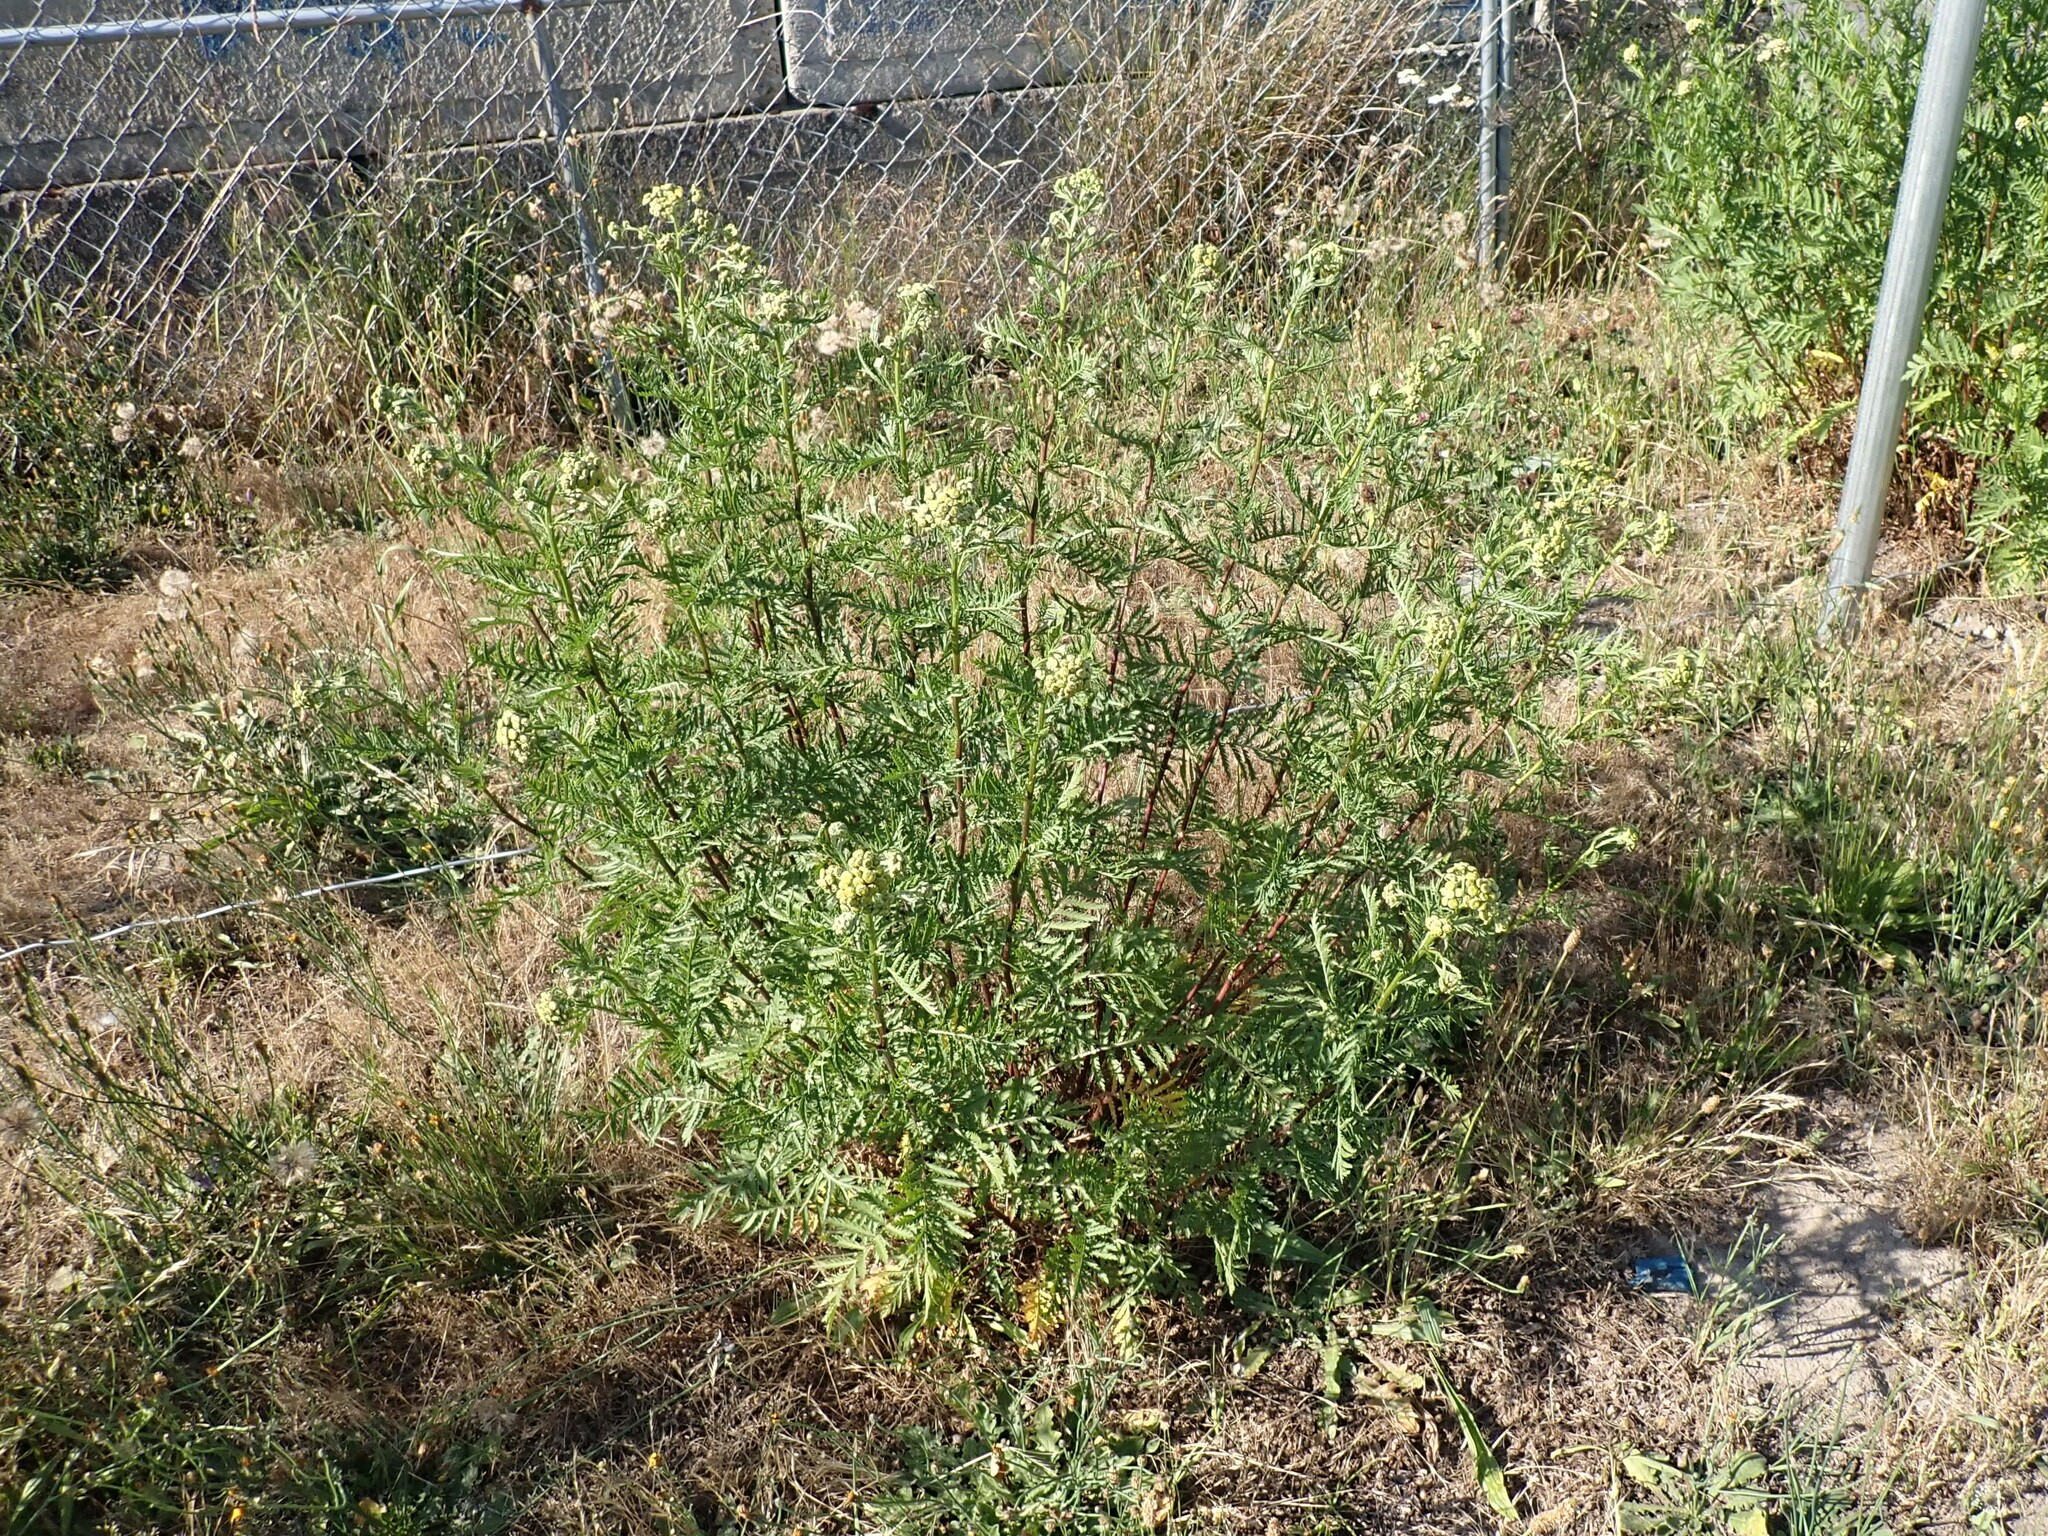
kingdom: Plantae
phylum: Tracheophyta
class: Magnoliopsida
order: Asterales
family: Asteraceae
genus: Tanacetum
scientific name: Tanacetum vulgare
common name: Common tansy
